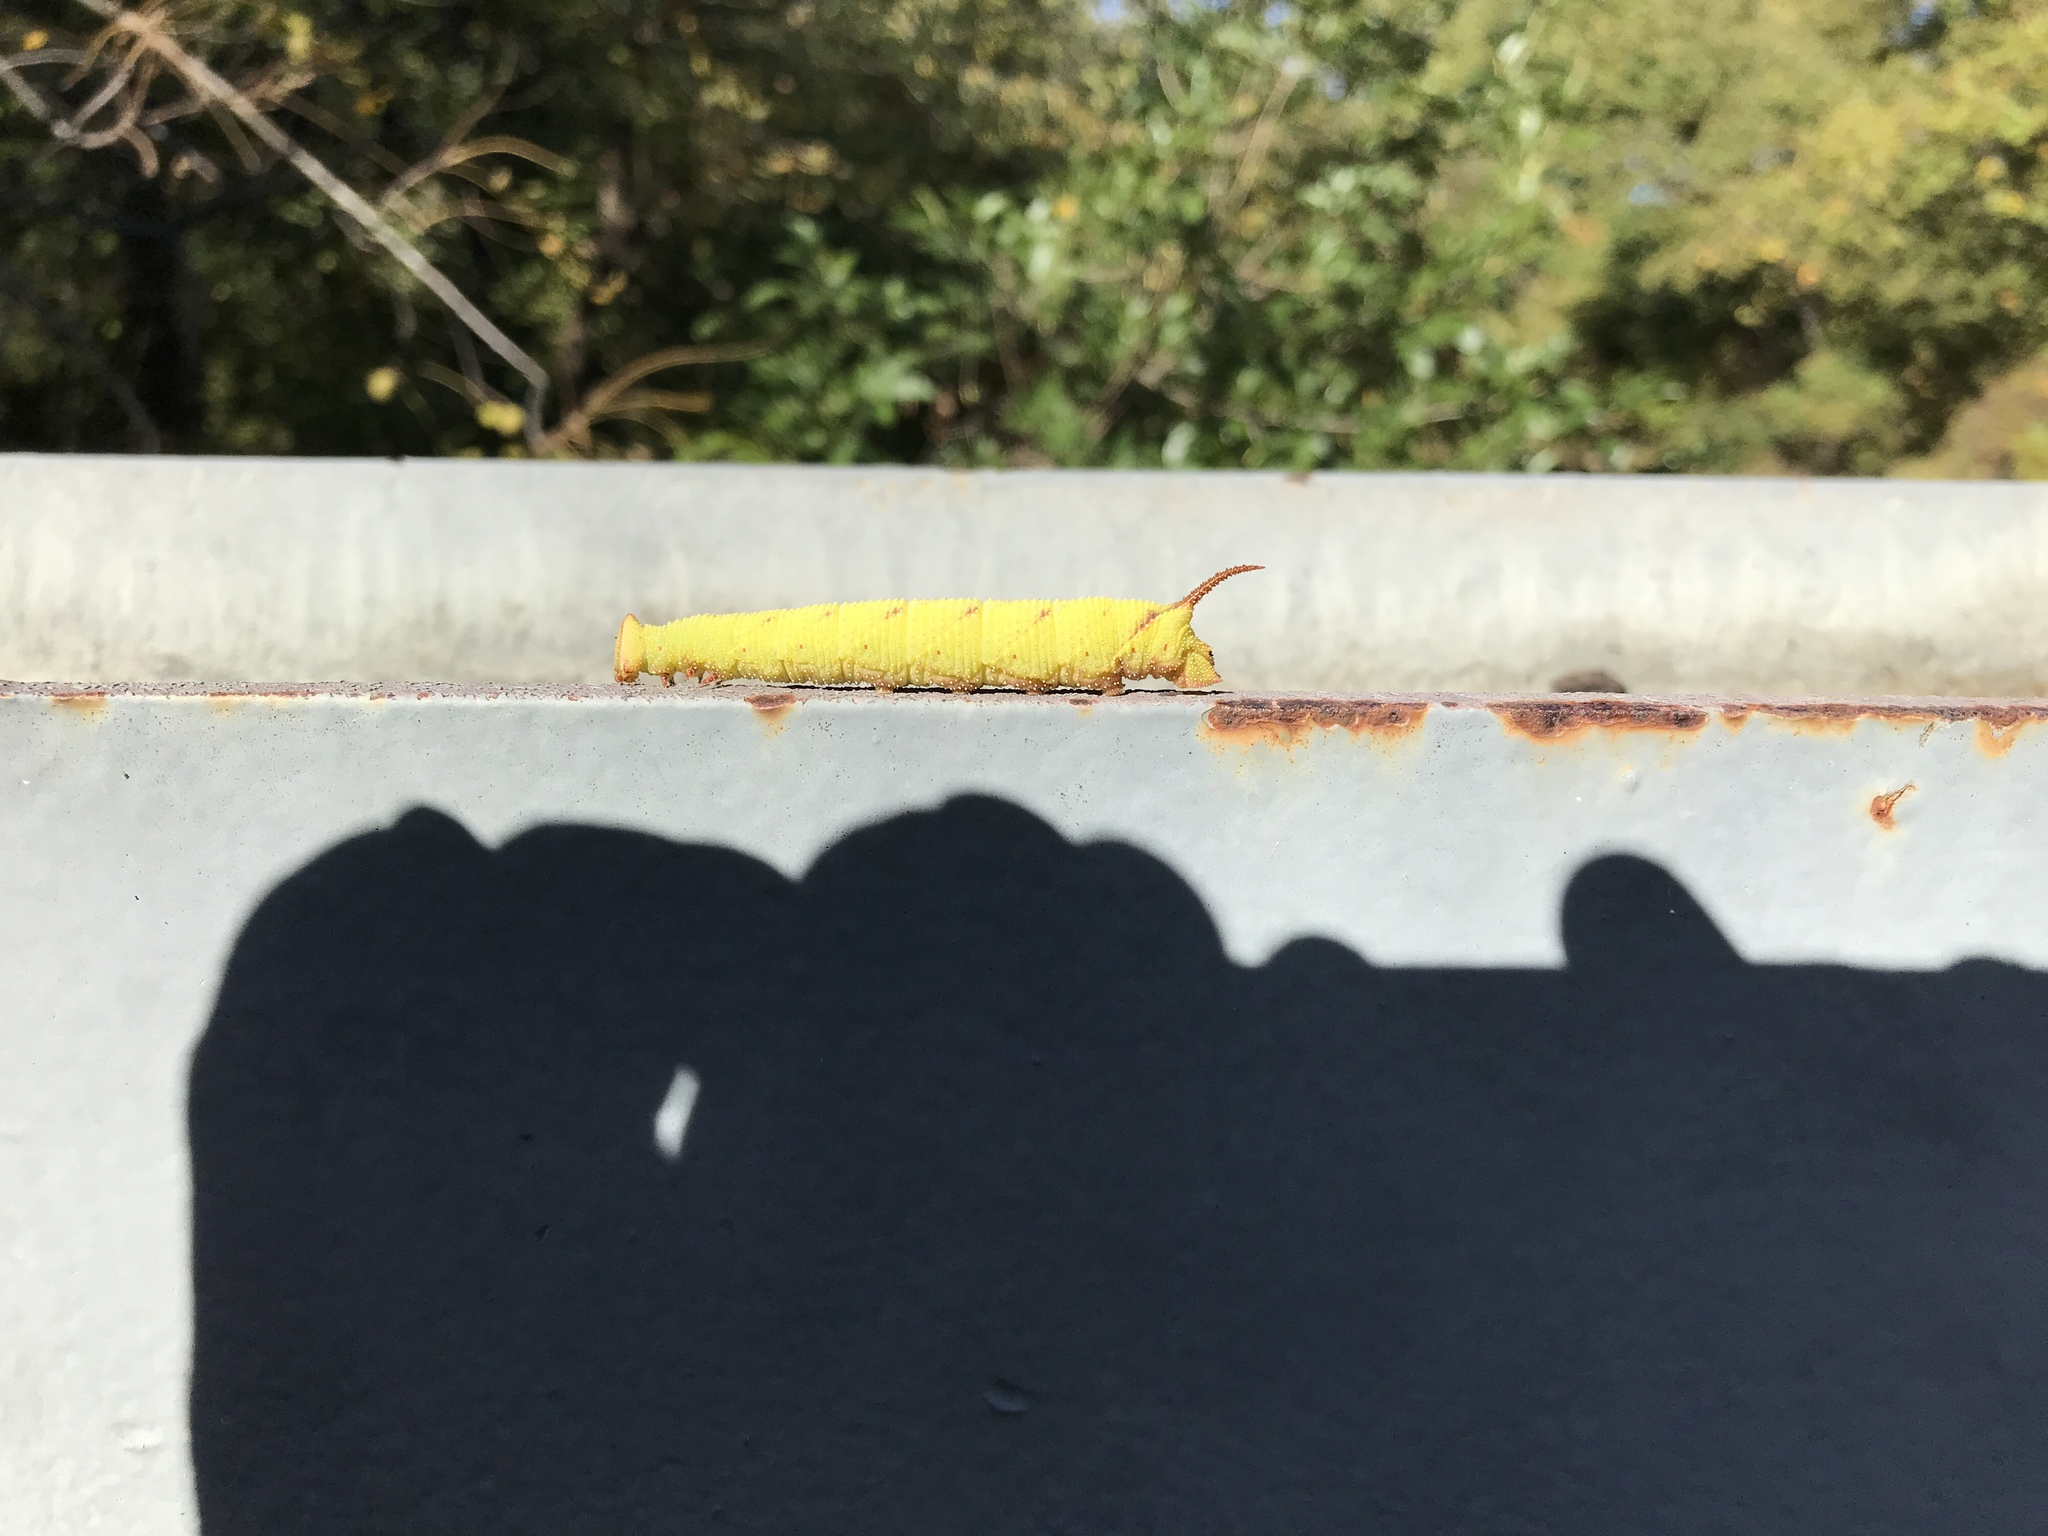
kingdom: Animalia
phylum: Arthropoda
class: Insecta
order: Lepidoptera
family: Sphingidae
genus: Amorpha
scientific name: Amorpha juglandis
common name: Walnut sphinx
